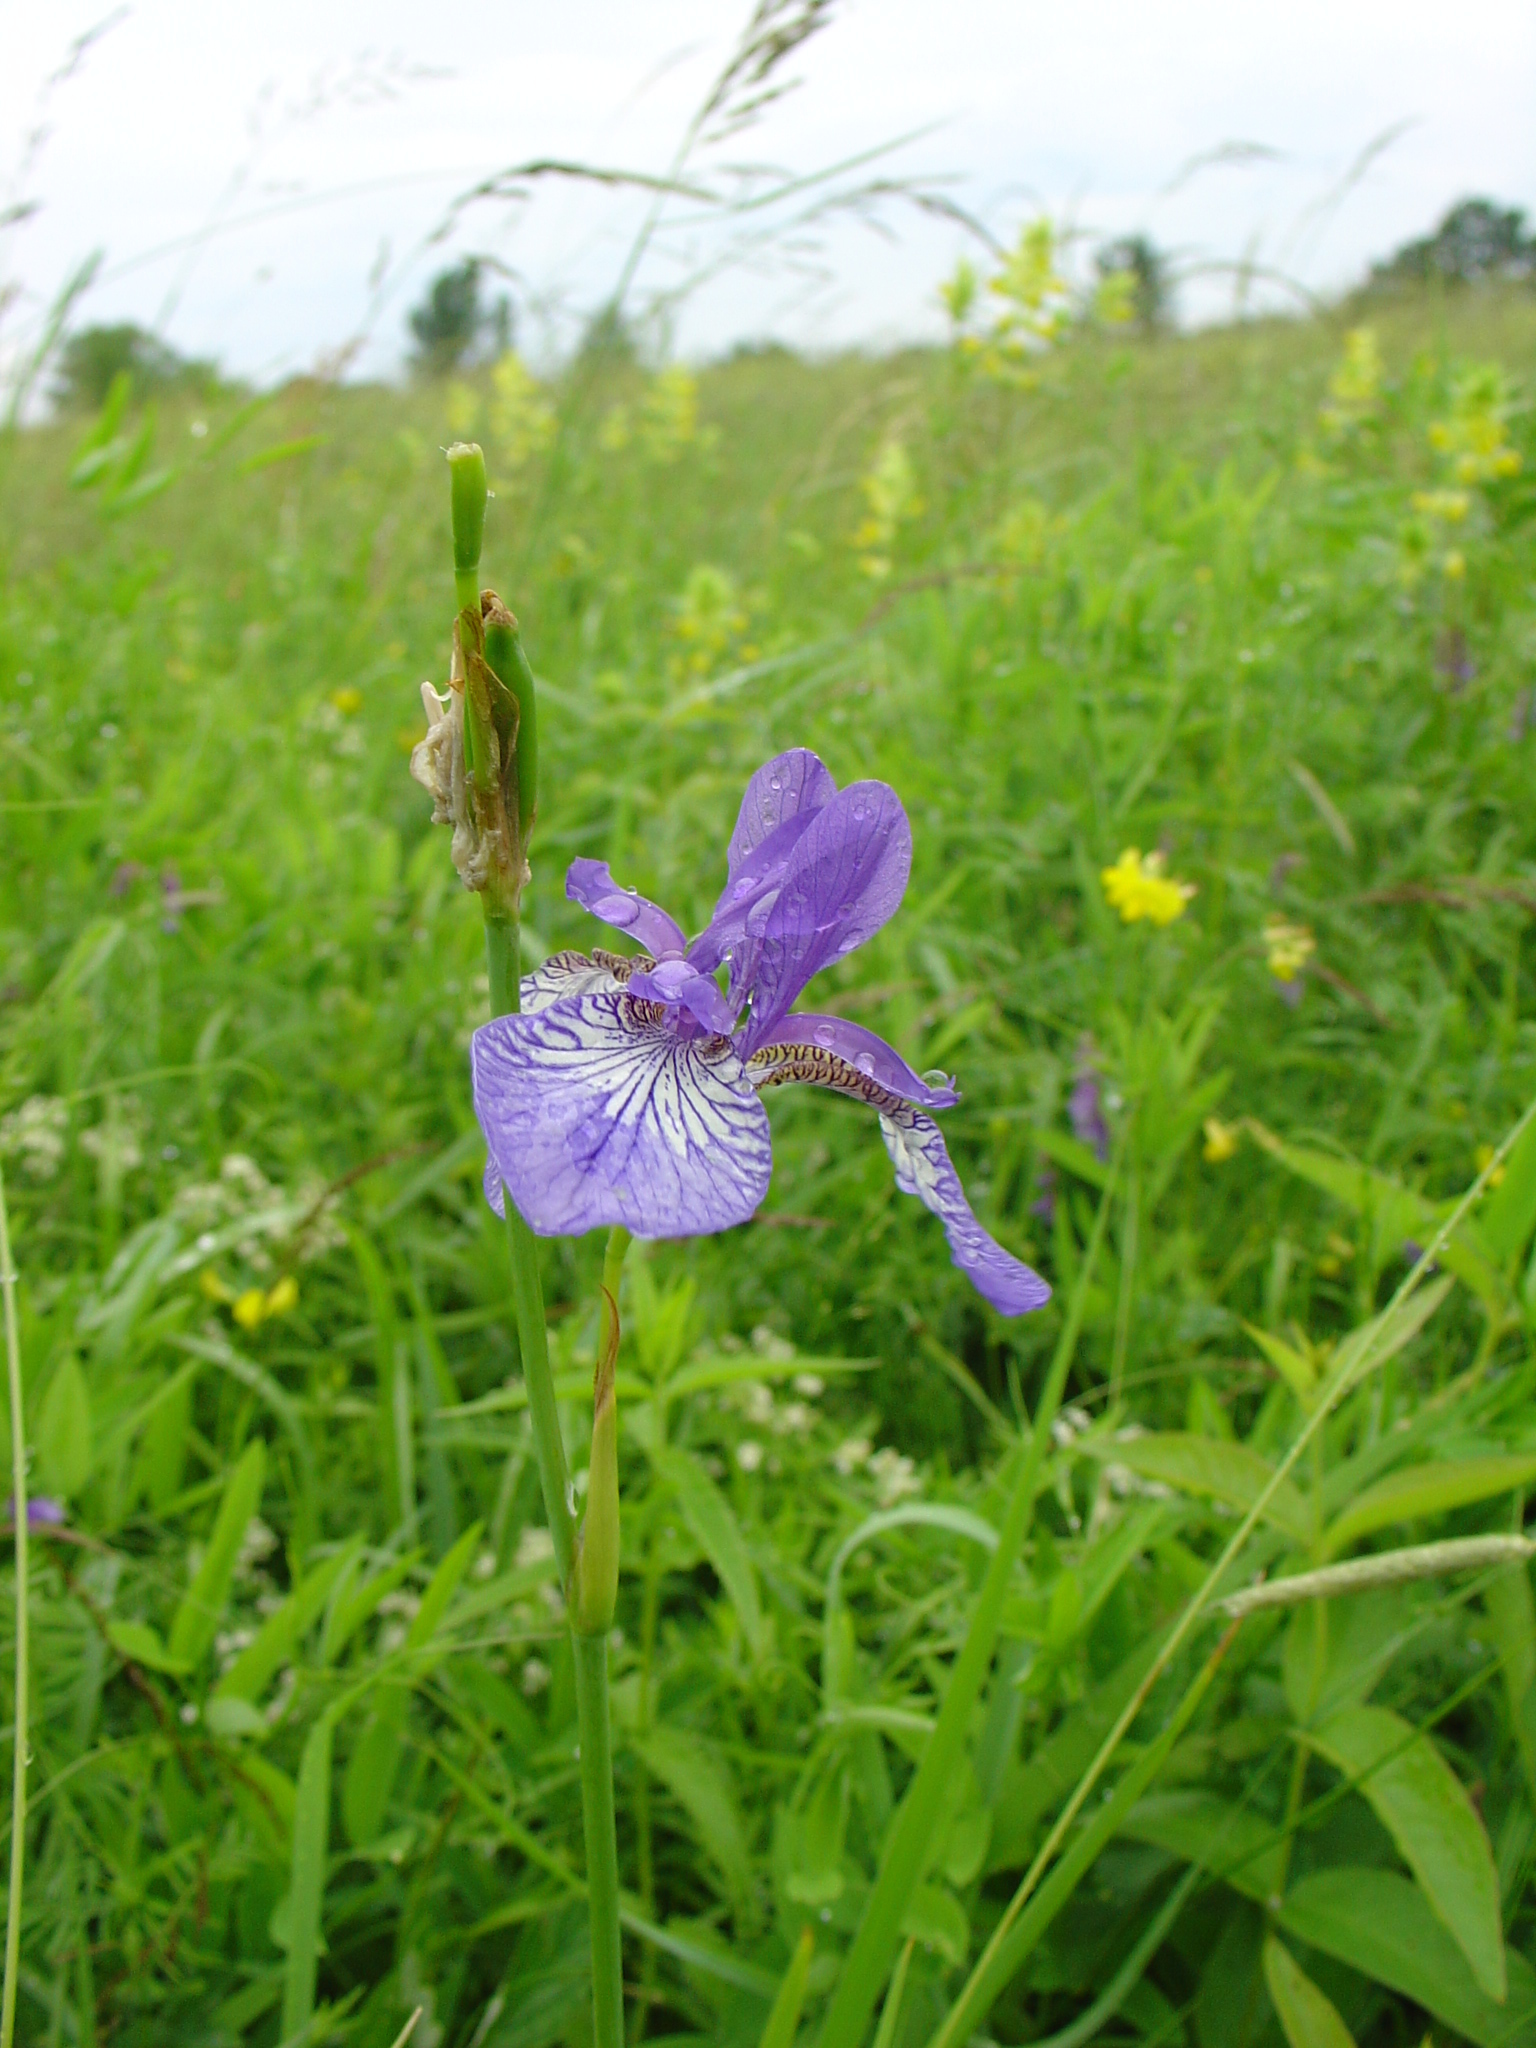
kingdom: Plantae
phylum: Tracheophyta
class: Liliopsida
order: Asparagales
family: Iridaceae
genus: Iris
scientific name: Iris sibirica
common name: Siberian iris
